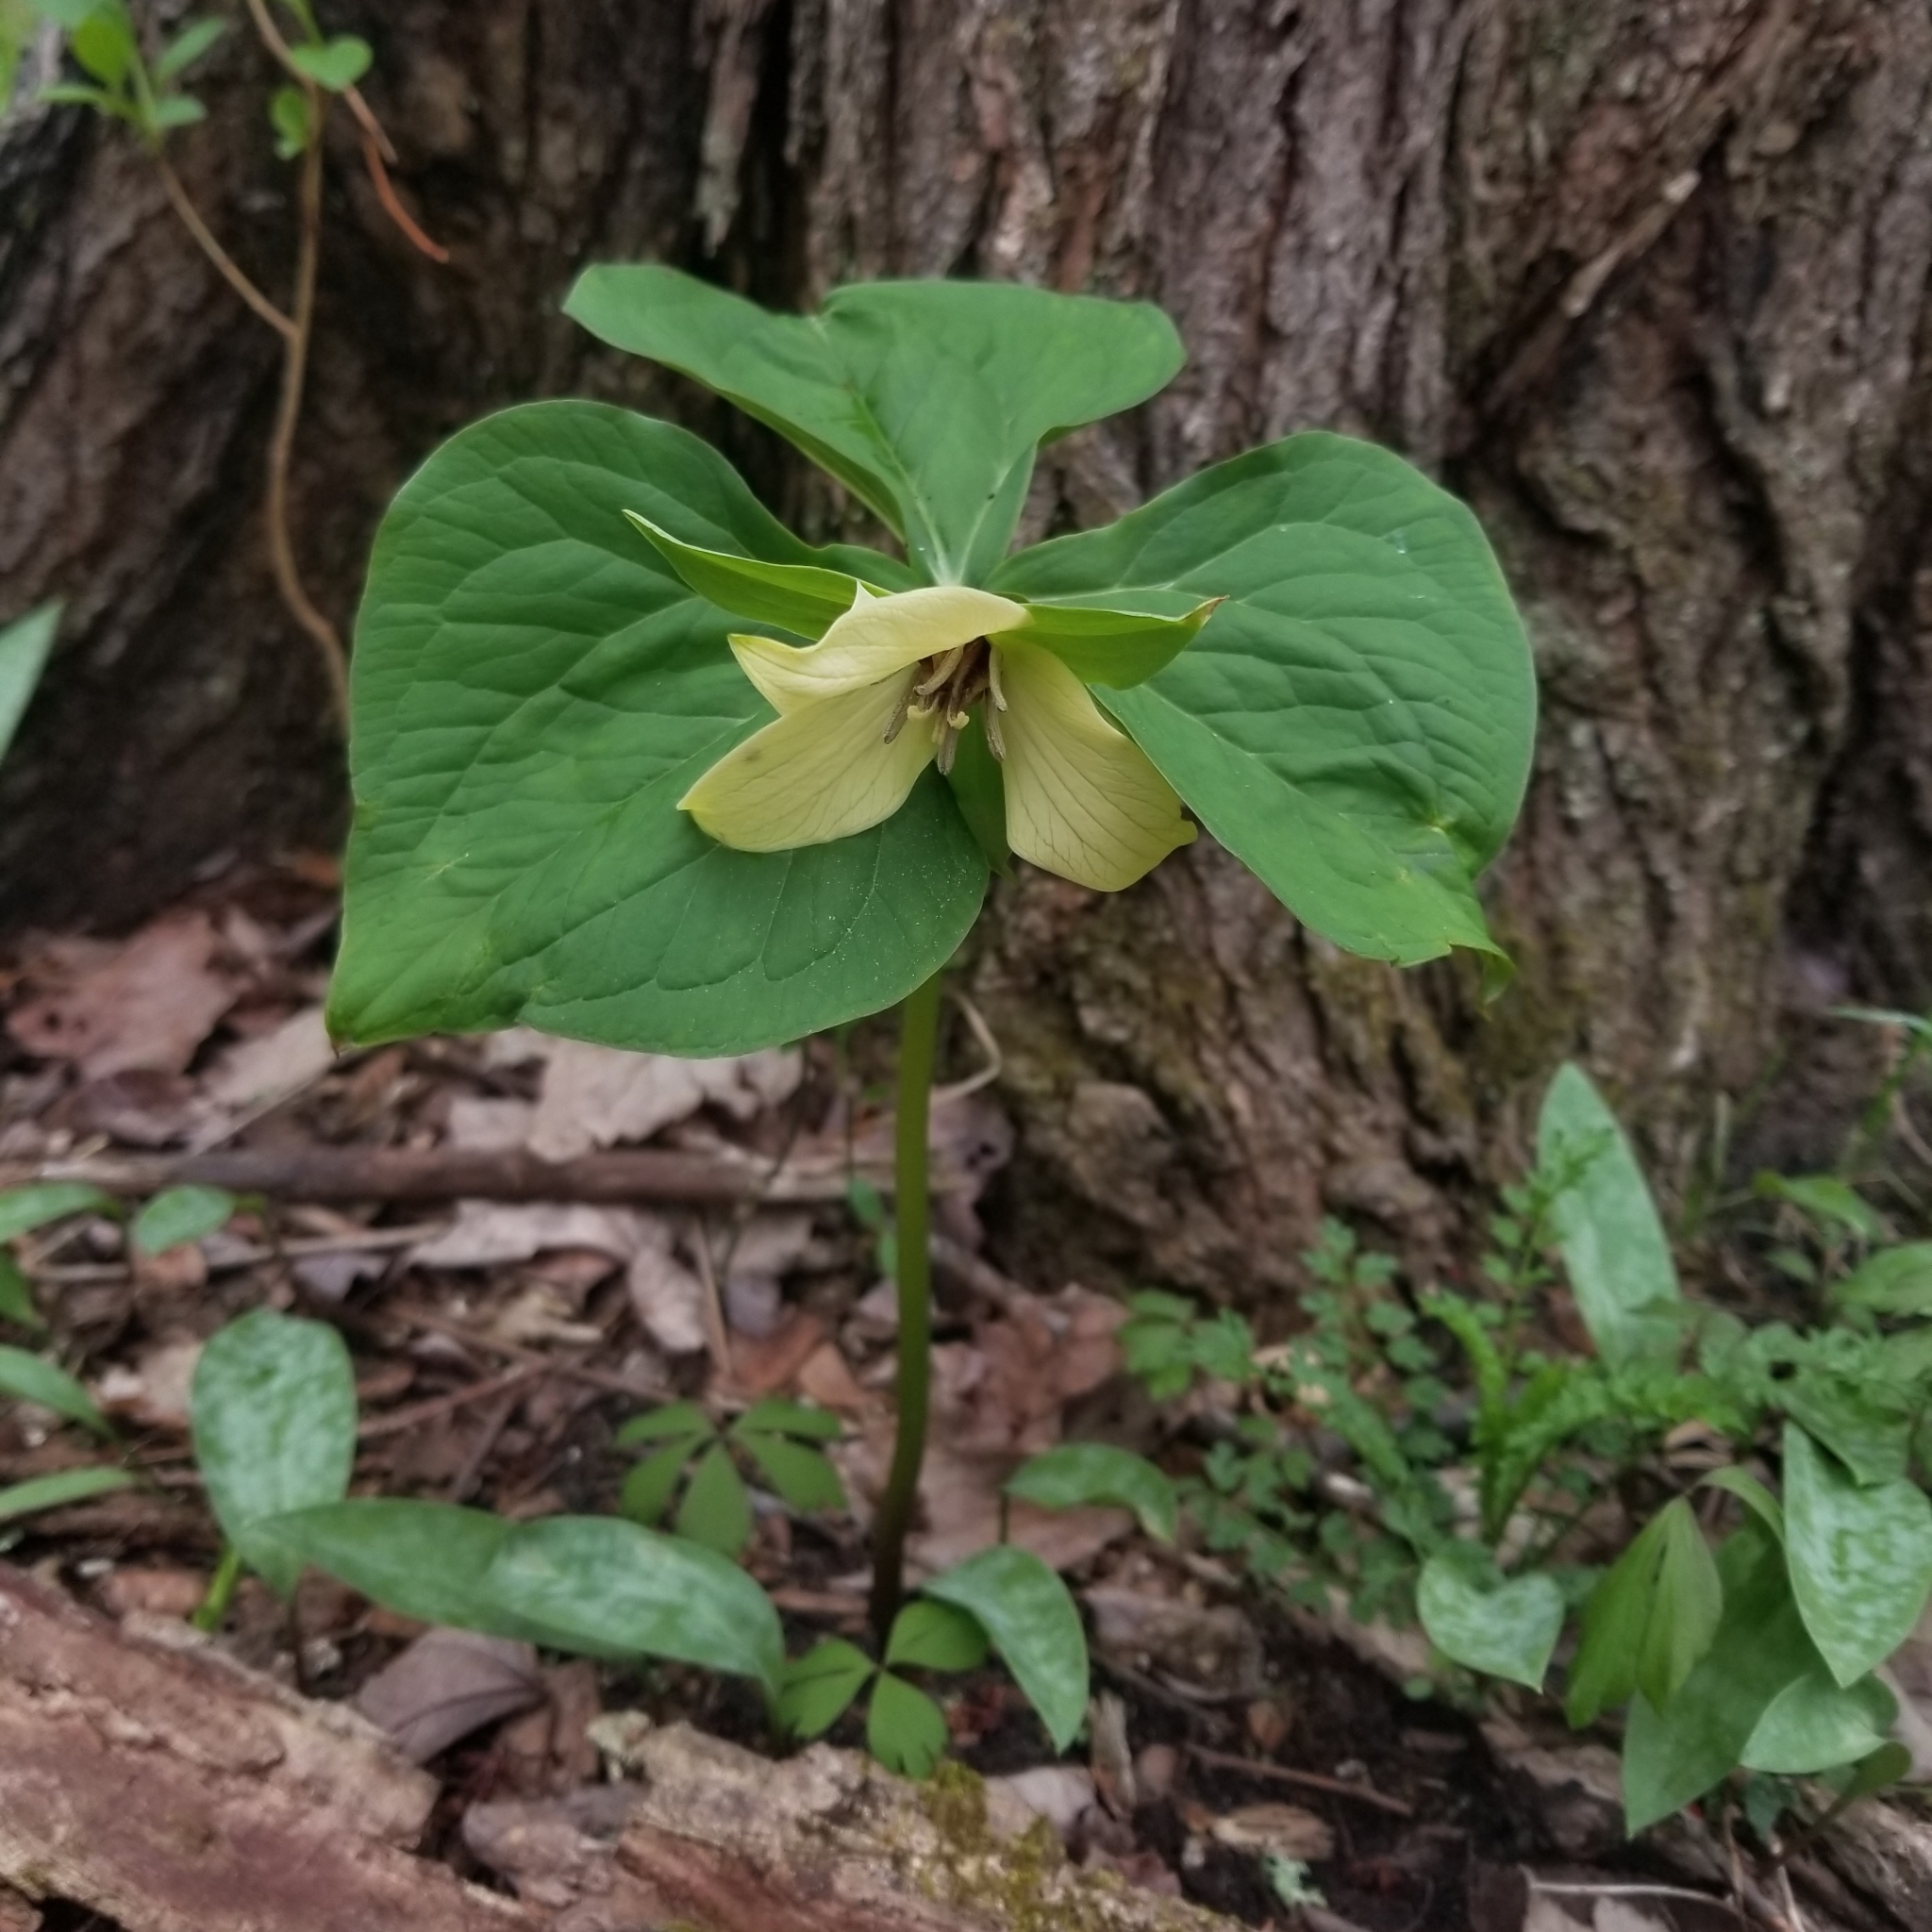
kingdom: Plantae
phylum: Tracheophyta
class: Liliopsida
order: Liliales
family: Melanthiaceae
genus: Trillium
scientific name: Trillium erectum
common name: Purple trillium
